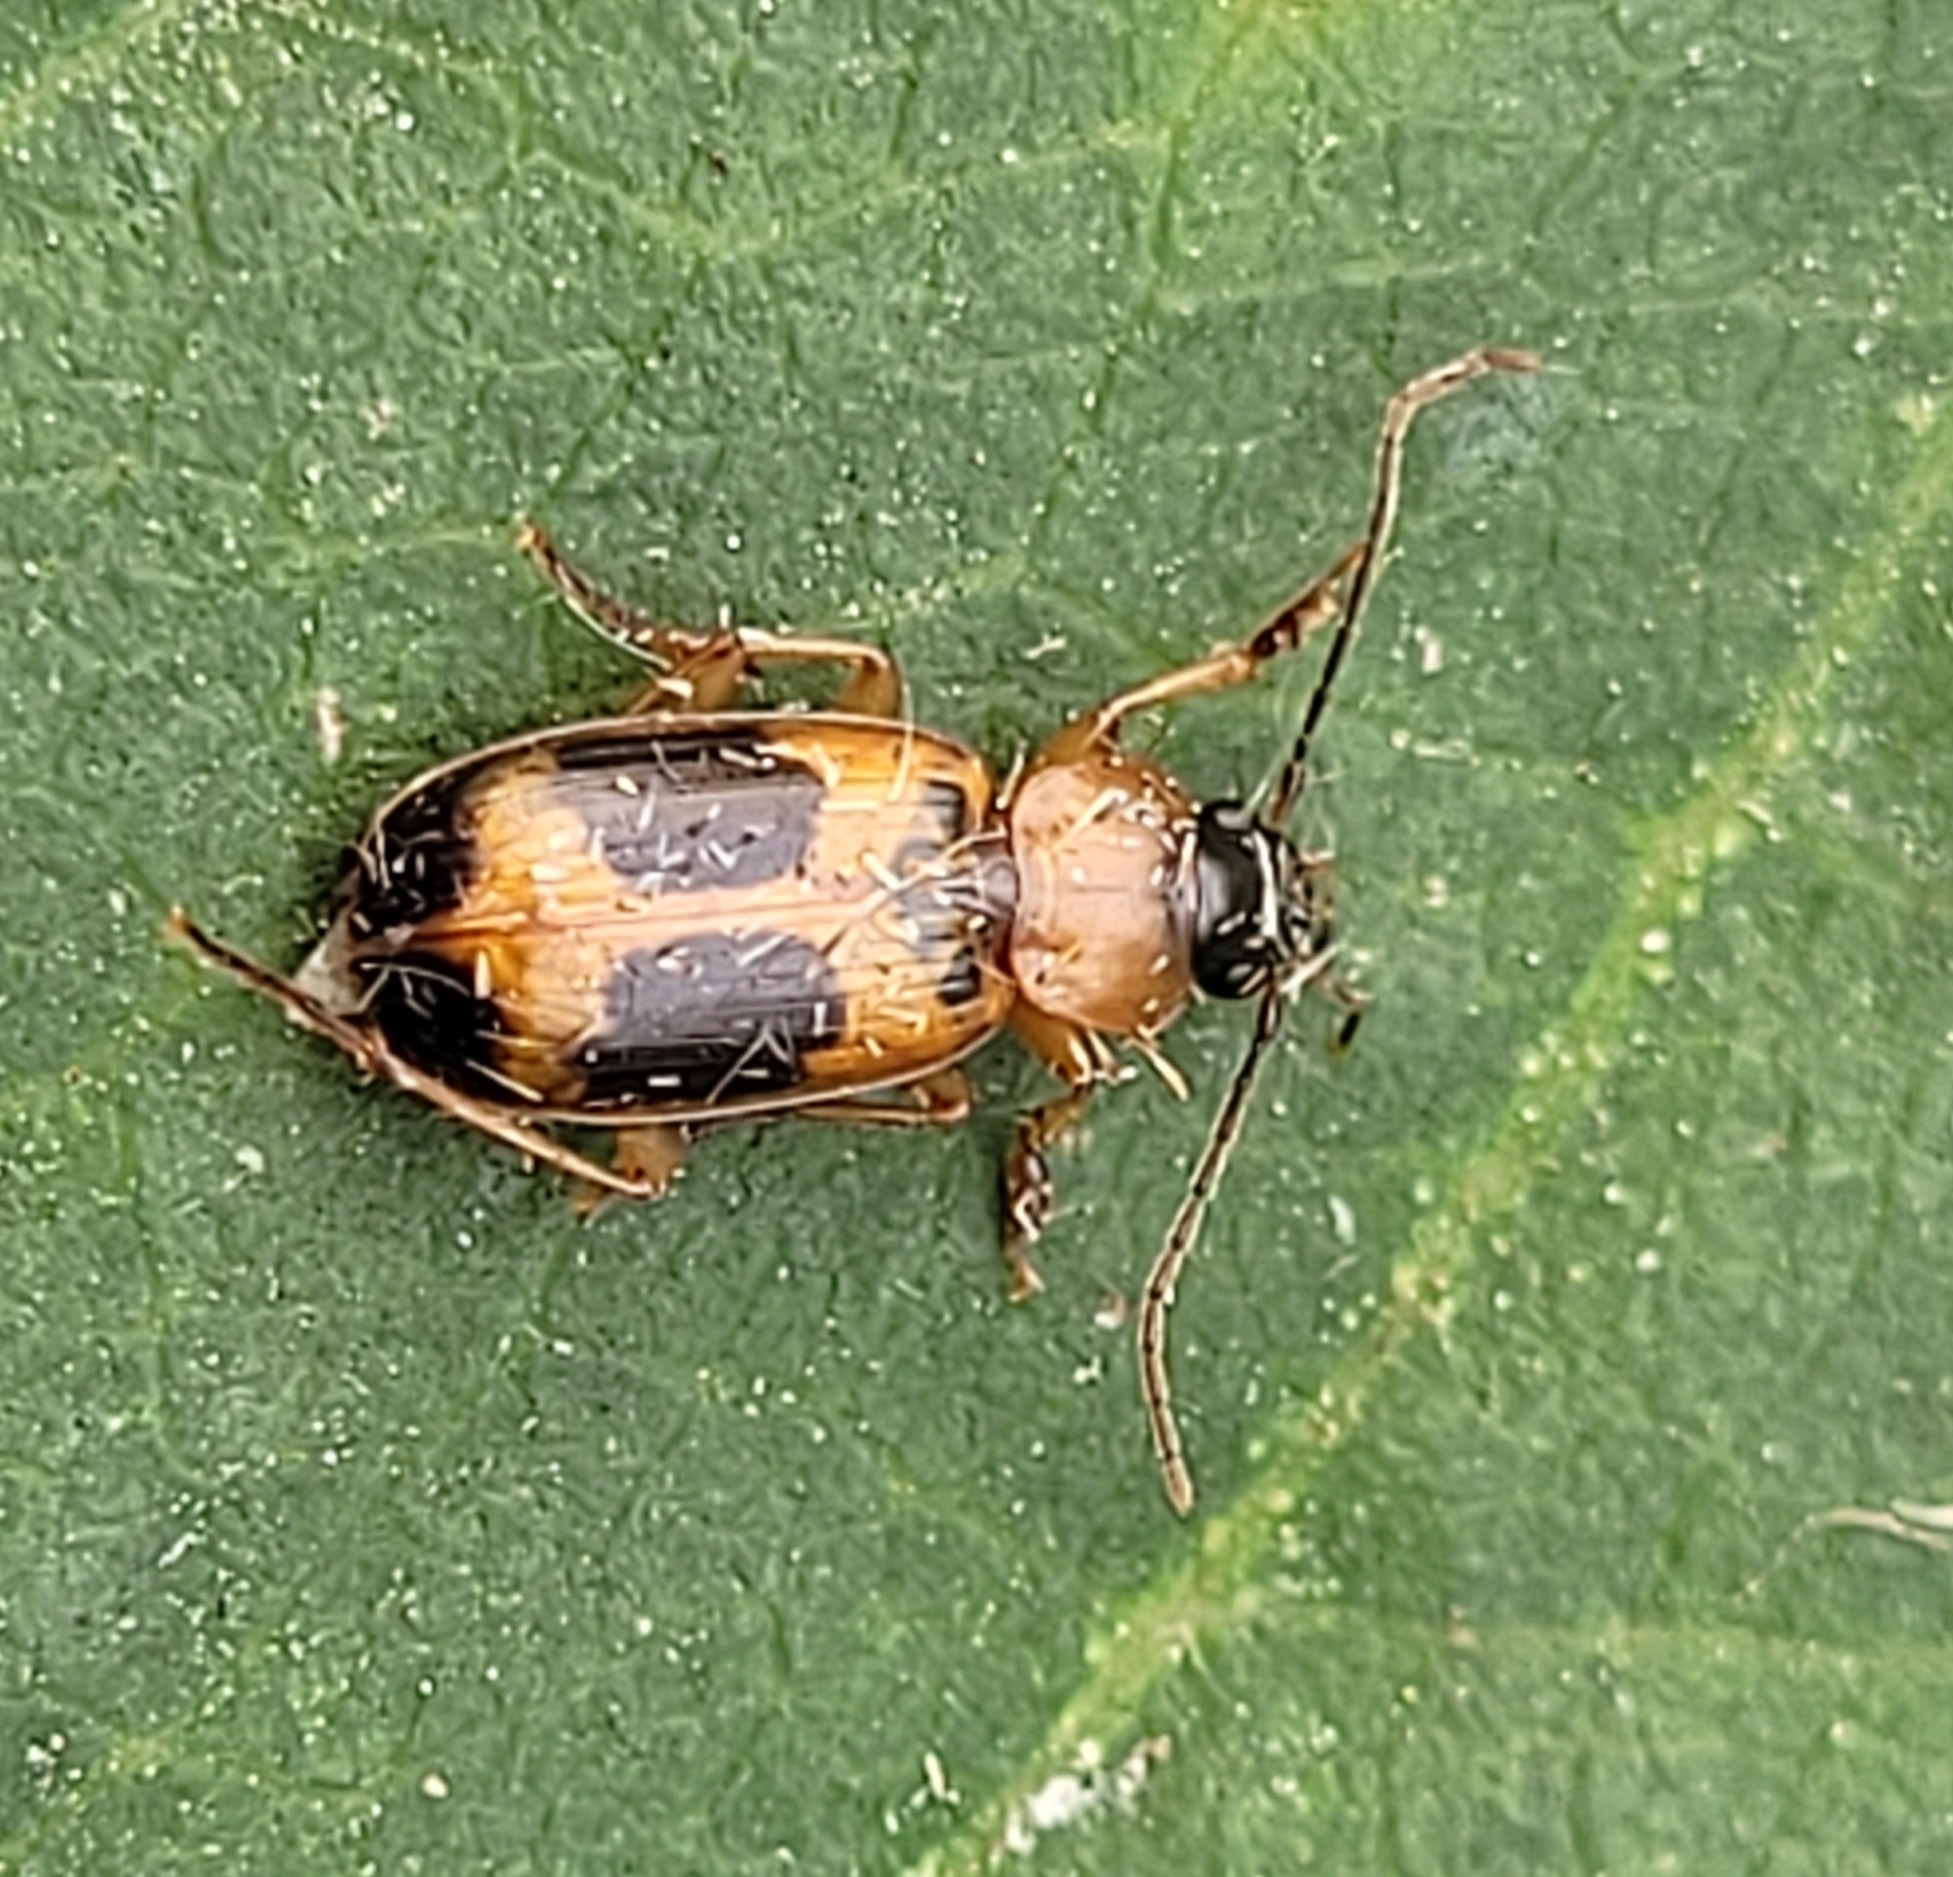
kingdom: Animalia
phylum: Arthropoda
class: Insecta
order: Coleoptera
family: Carabidae
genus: Badister
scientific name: Badister neopulchellus
